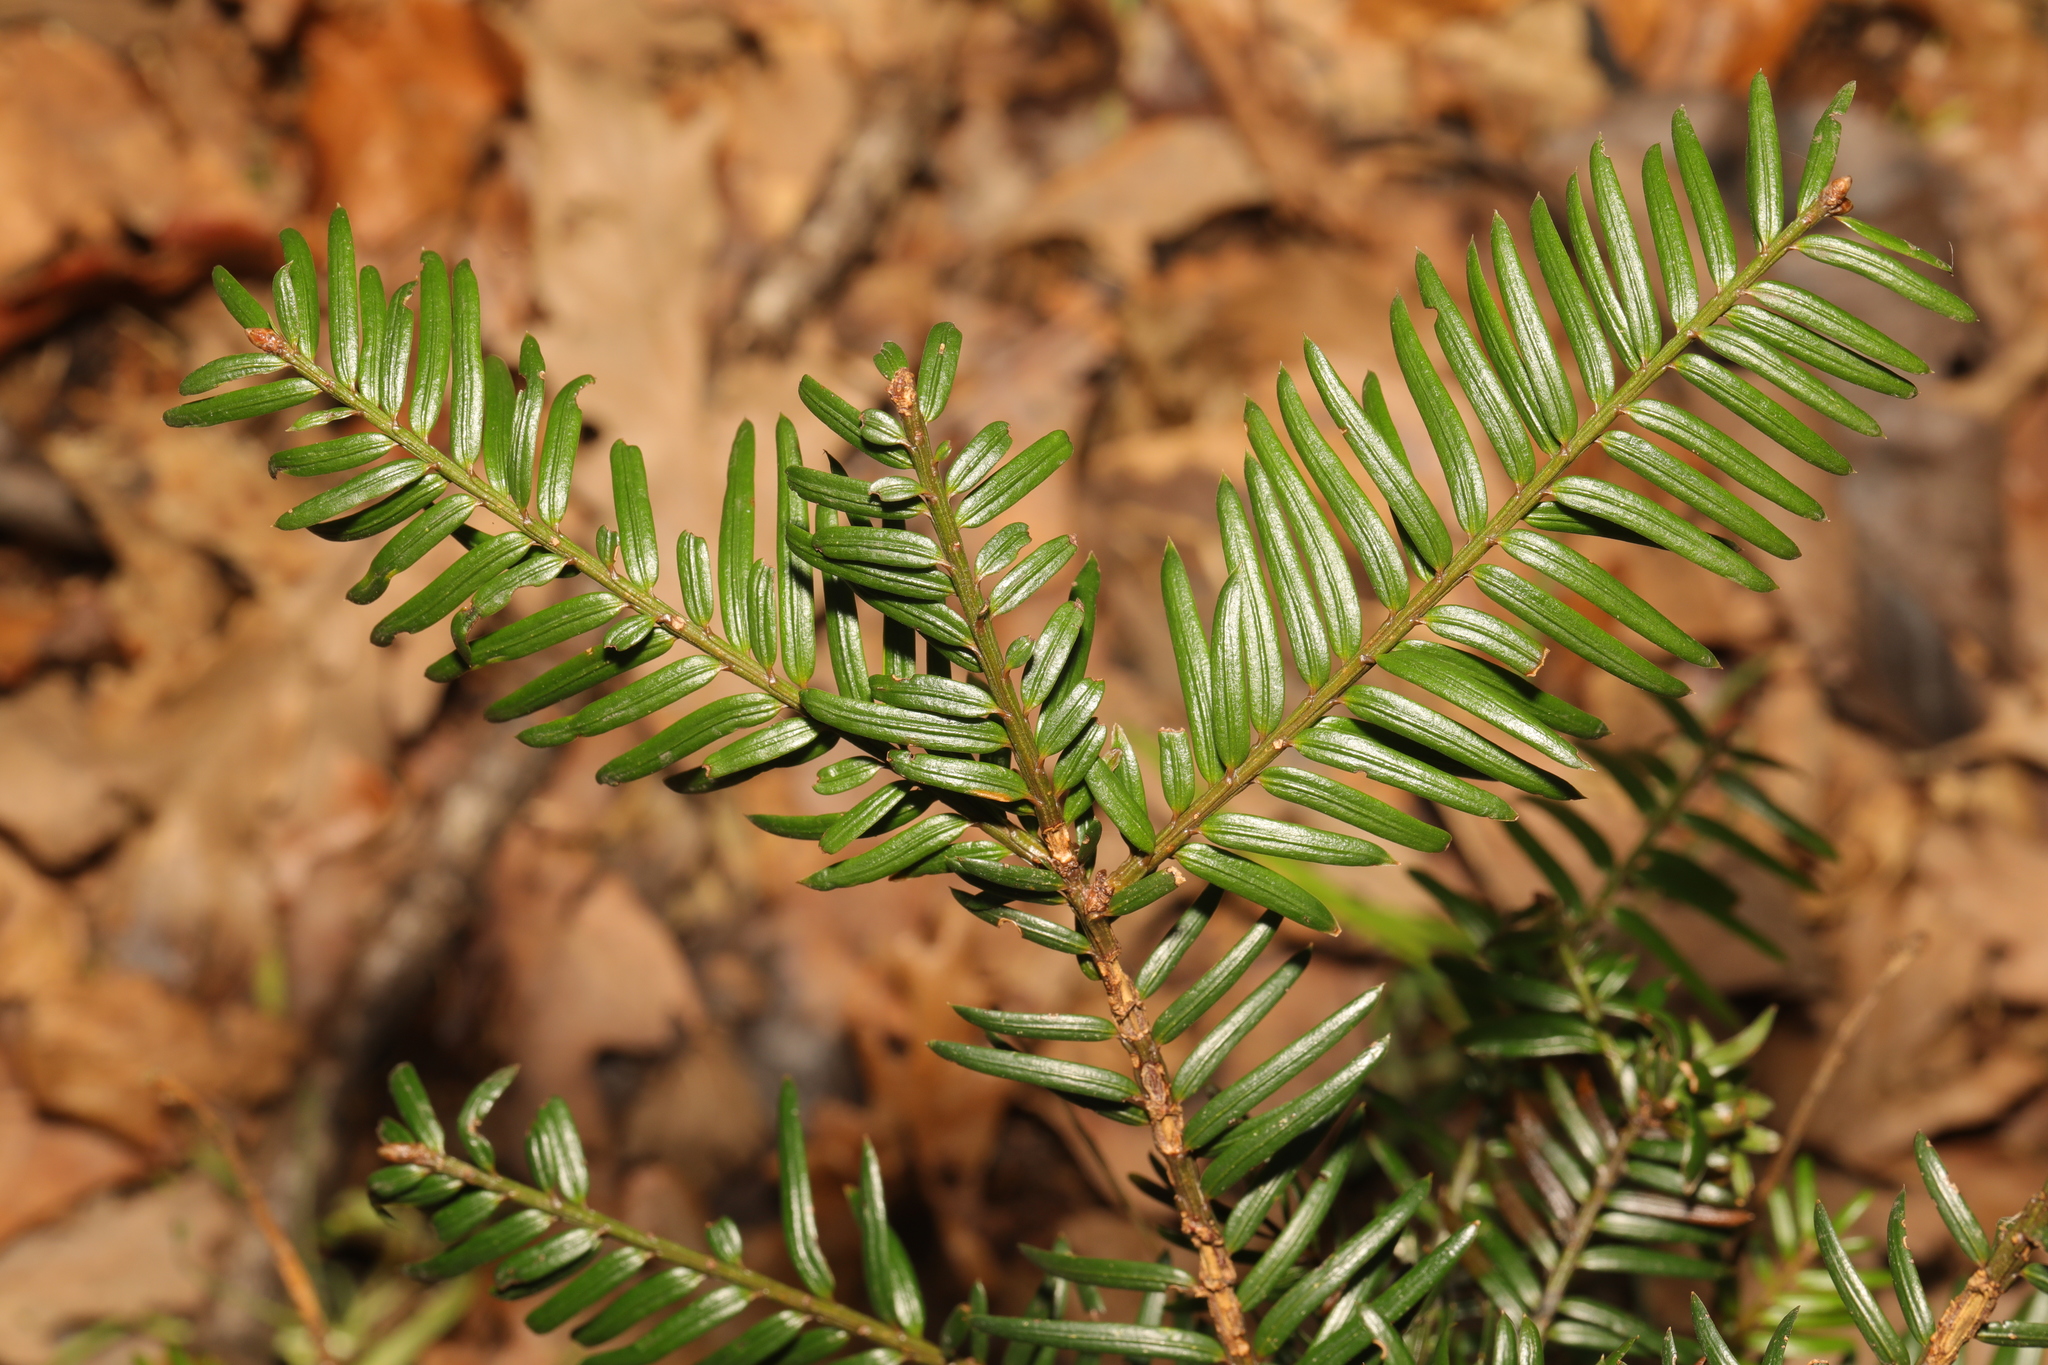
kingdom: Plantae
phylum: Tracheophyta
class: Pinopsida
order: Pinales
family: Taxaceae
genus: Taxus
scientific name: Taxus baccata
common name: Yew
